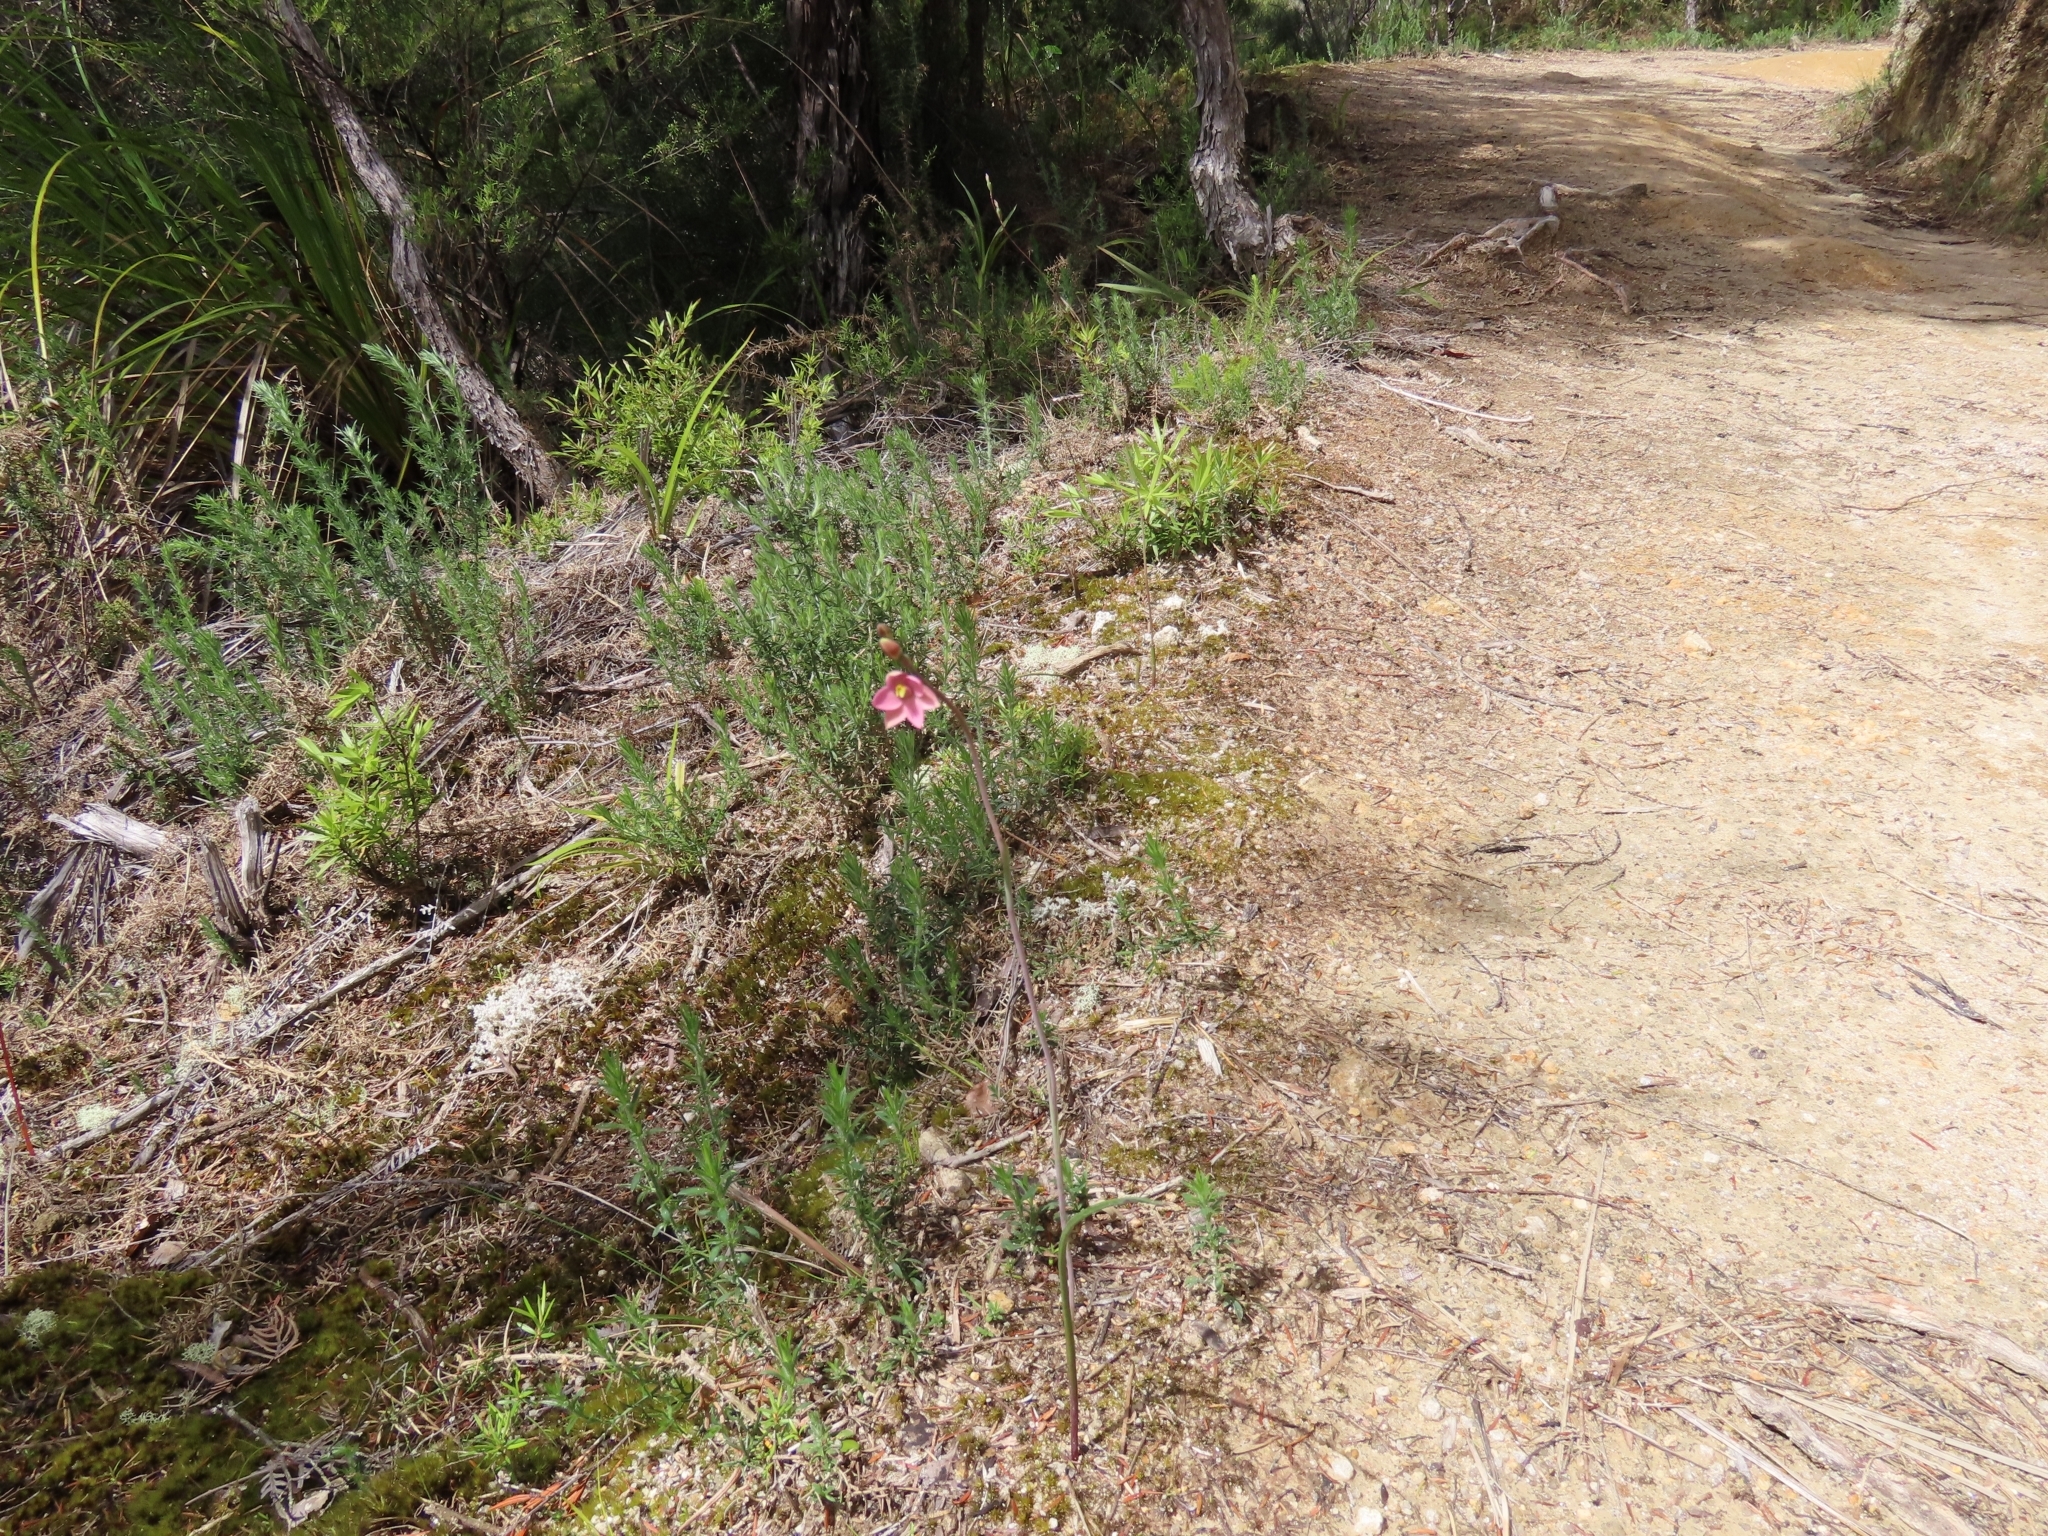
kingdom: Plantae
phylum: Tracheophyta
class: Liliopsida
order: Asparagales
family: Orchidaceae
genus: Thelymitra
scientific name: Thelymitra carnea
